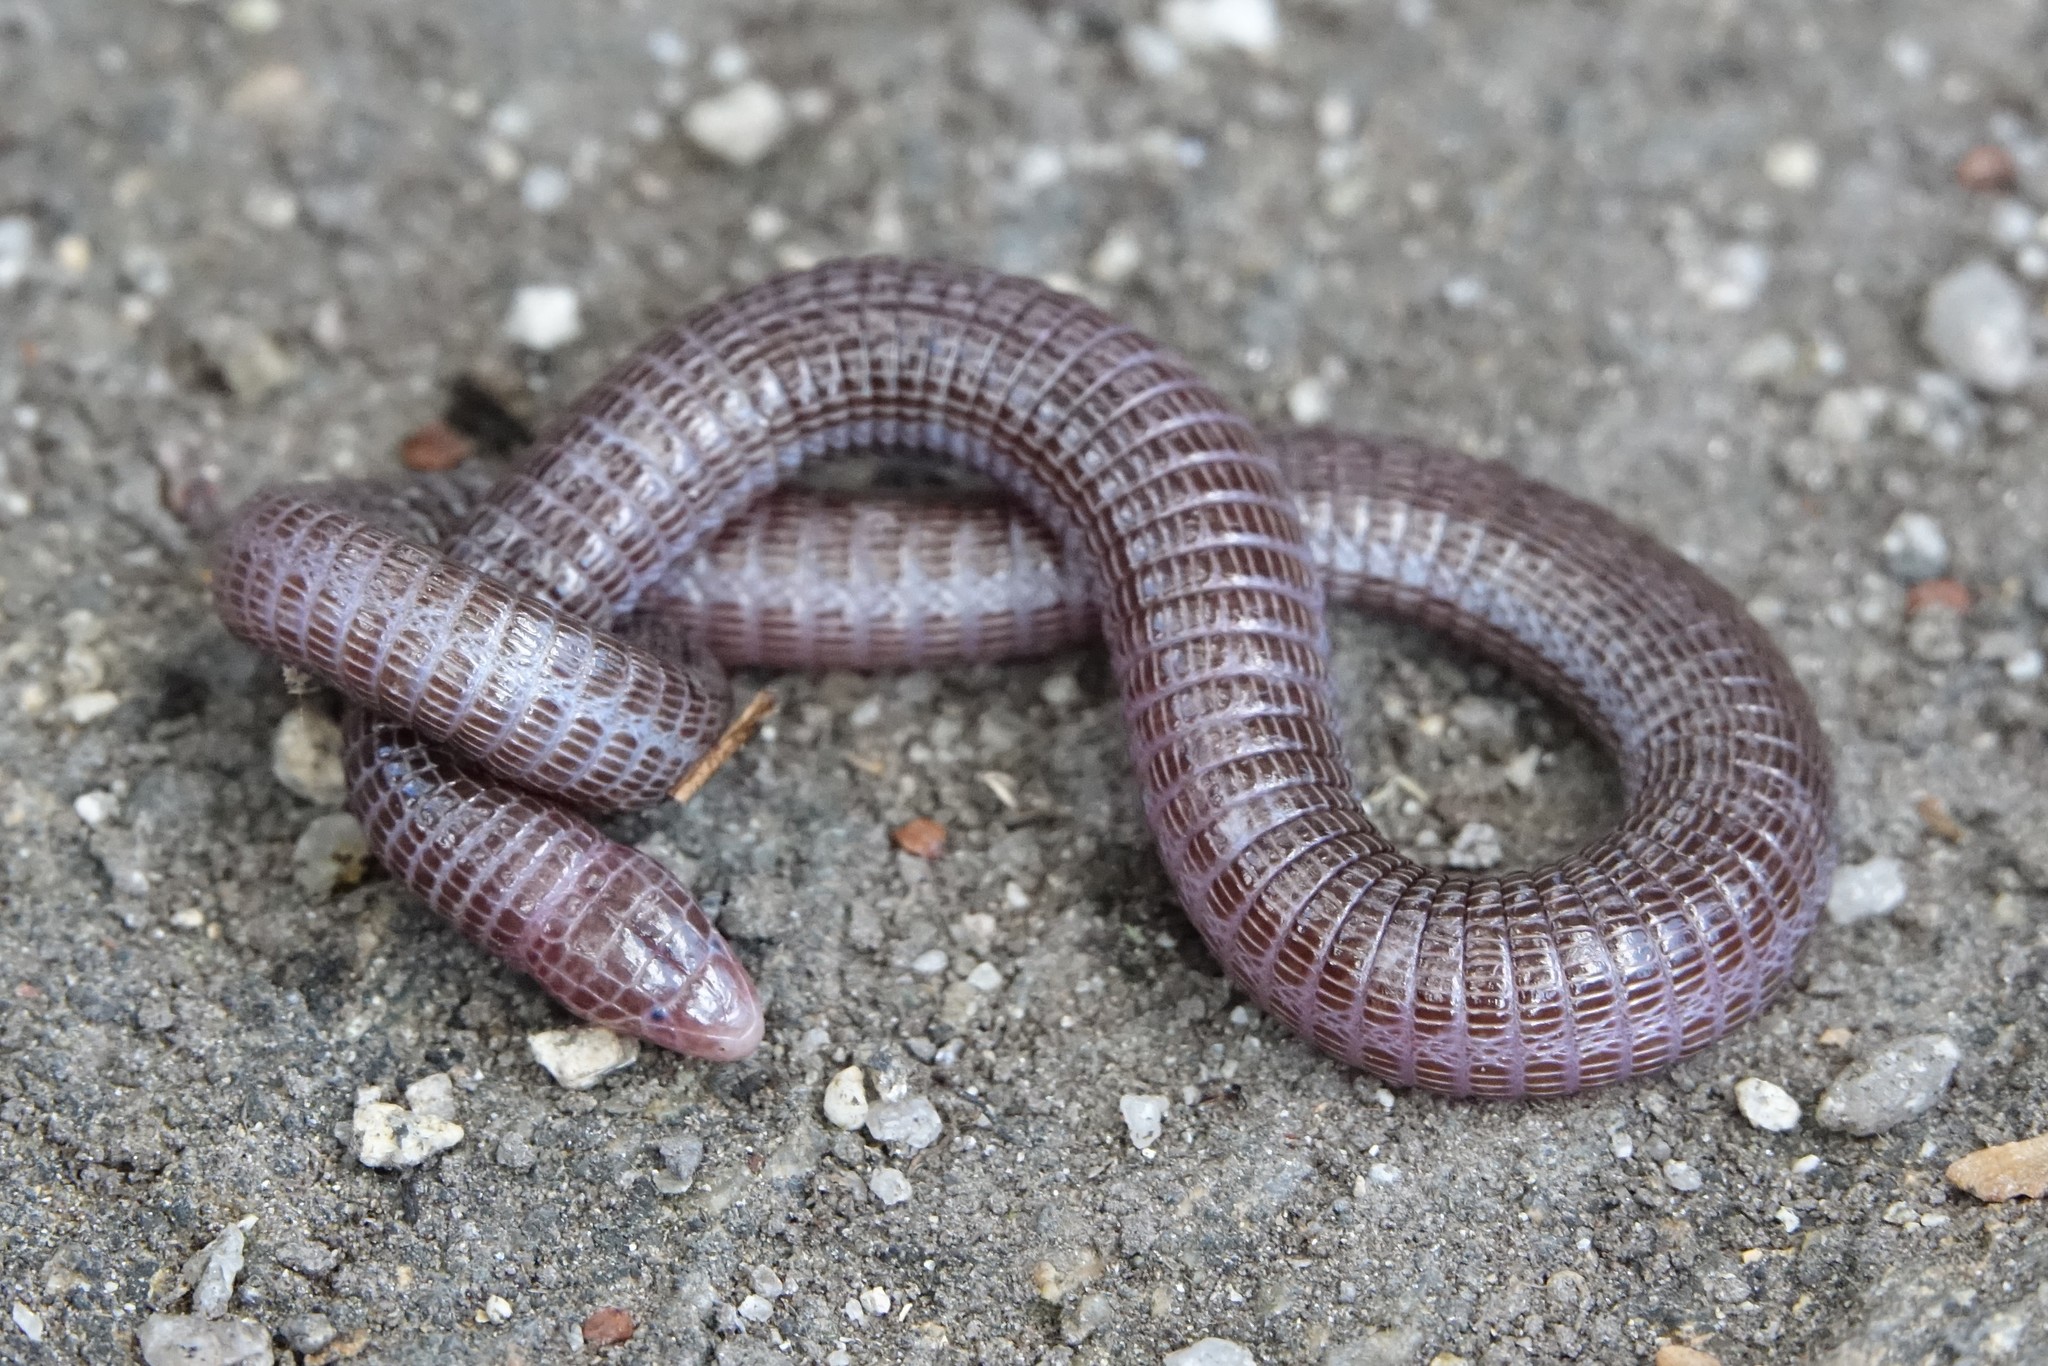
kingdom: Animalia
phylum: Chordata
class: Squamata
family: Blanidae
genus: Blanus
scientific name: Blanus vandellii
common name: Vandelli's worm lizard
